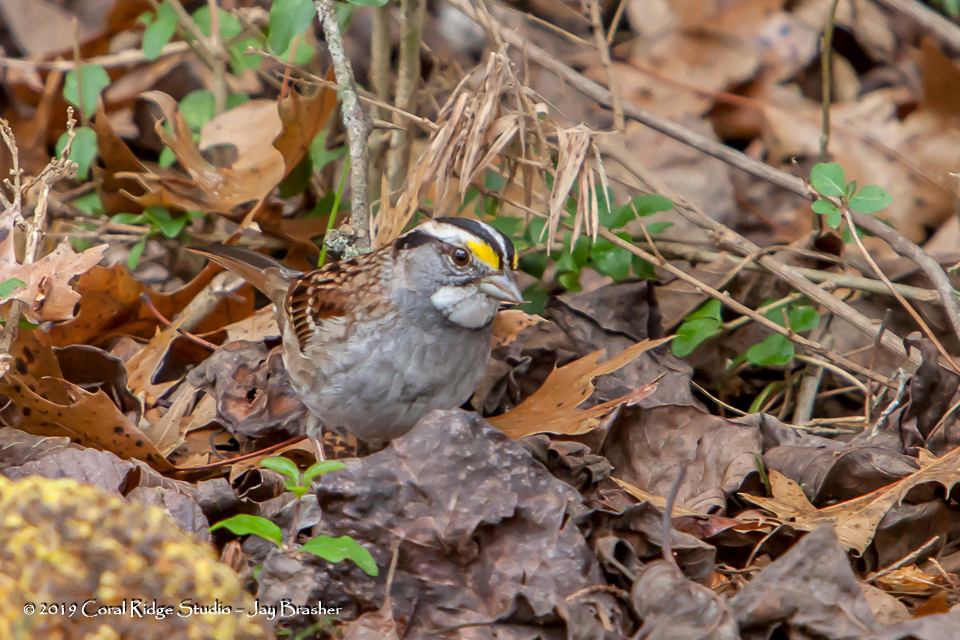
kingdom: Animalia
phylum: Chordata
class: Aves
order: Passeriformes
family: Passerellidae
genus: Zonotrichia
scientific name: Zonotrichia albicollis
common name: White-throated sparrow
